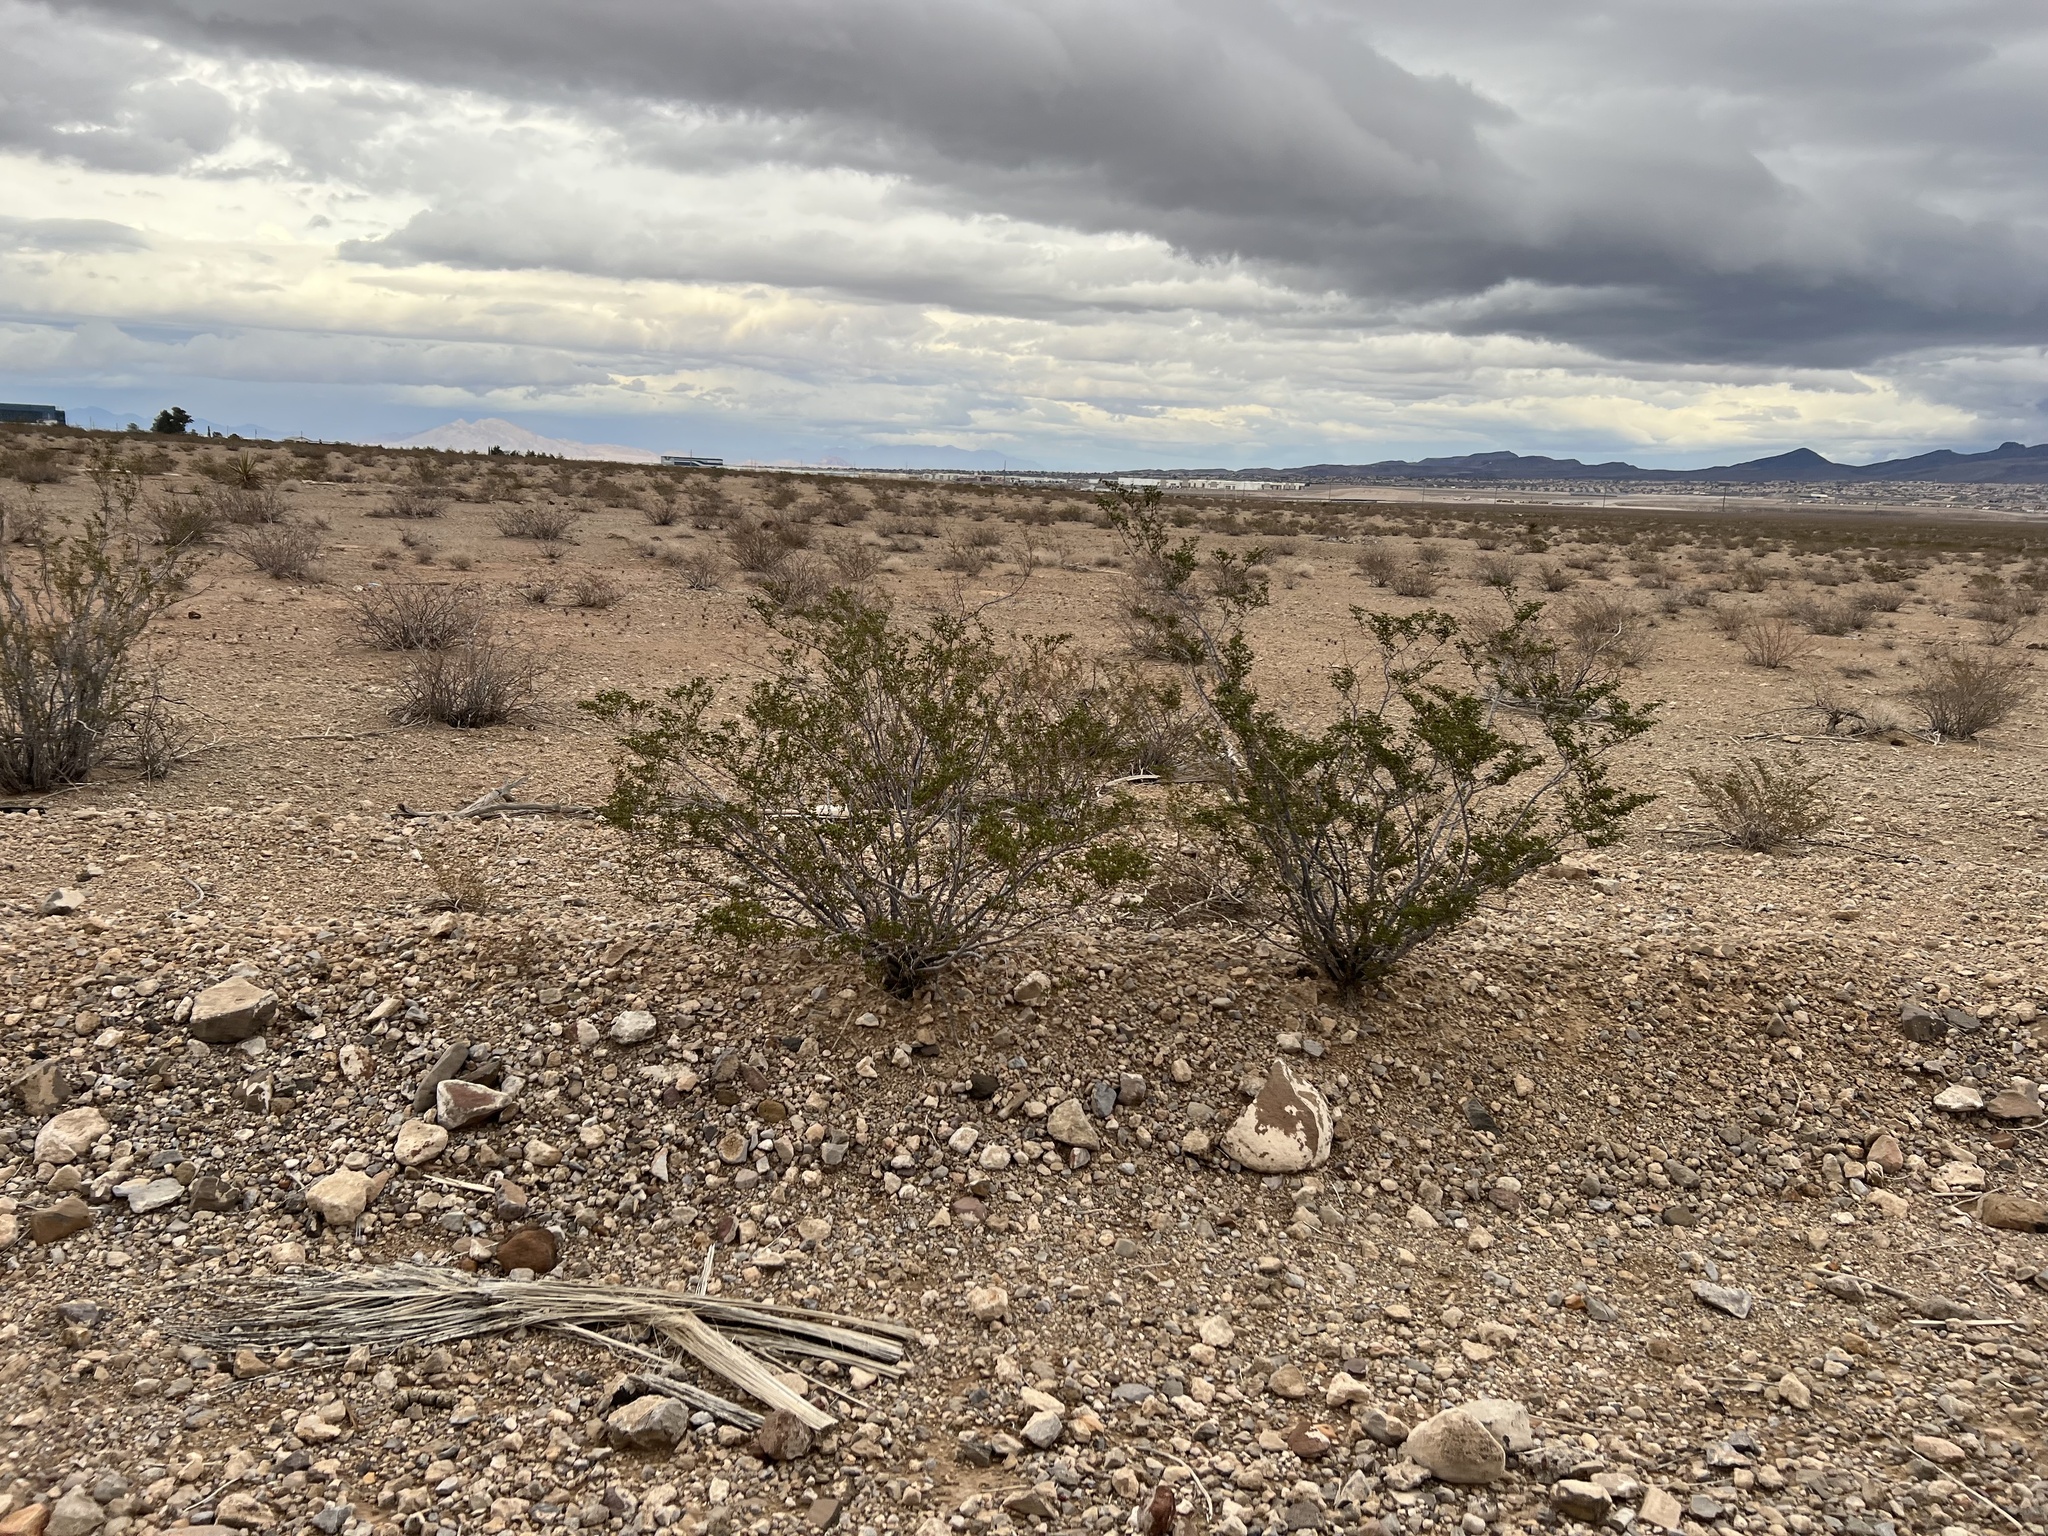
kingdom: Plantae
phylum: Tracheophyta
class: Magnoliopsida
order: Zygophyllales
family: Zygophyllaceae
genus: Larrea
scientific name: Larrea tridentata
